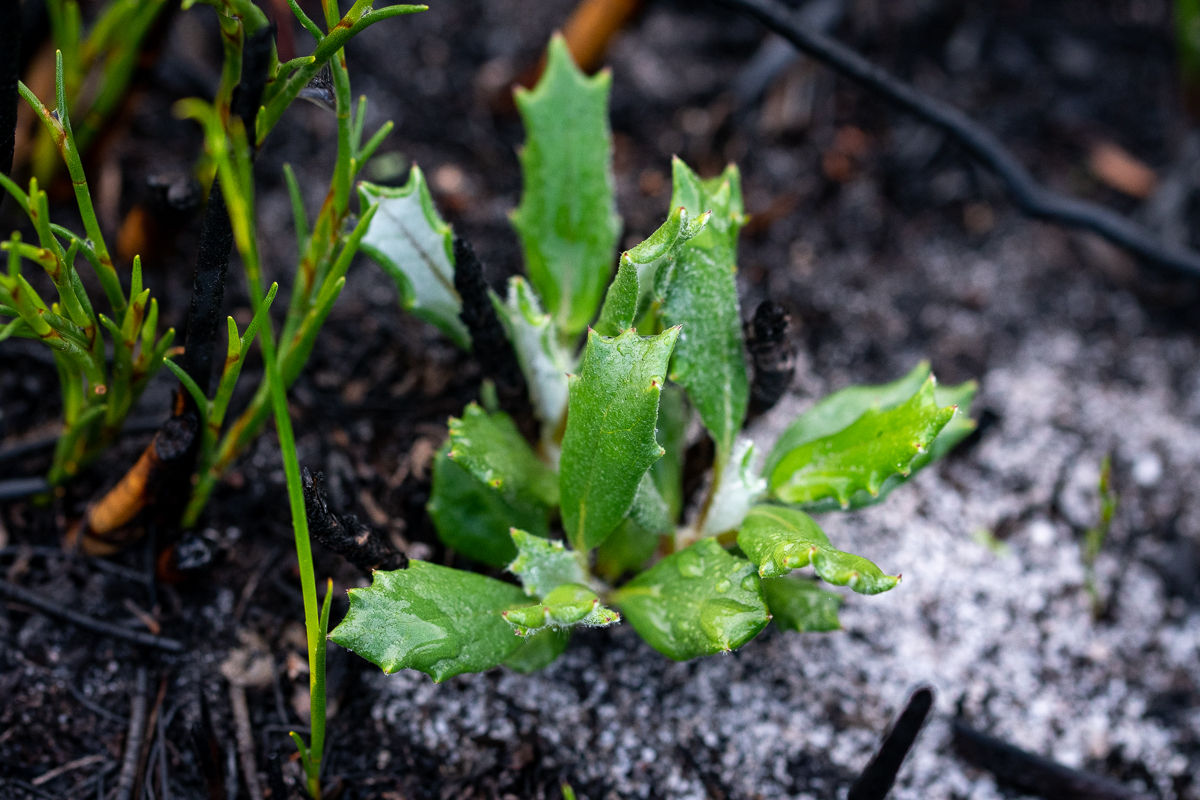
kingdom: Plantae
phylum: Tracheophyta
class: Magnoliopsida
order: Asterales
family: Asteraceae
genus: Berkheya
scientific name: Berkheya barbata
